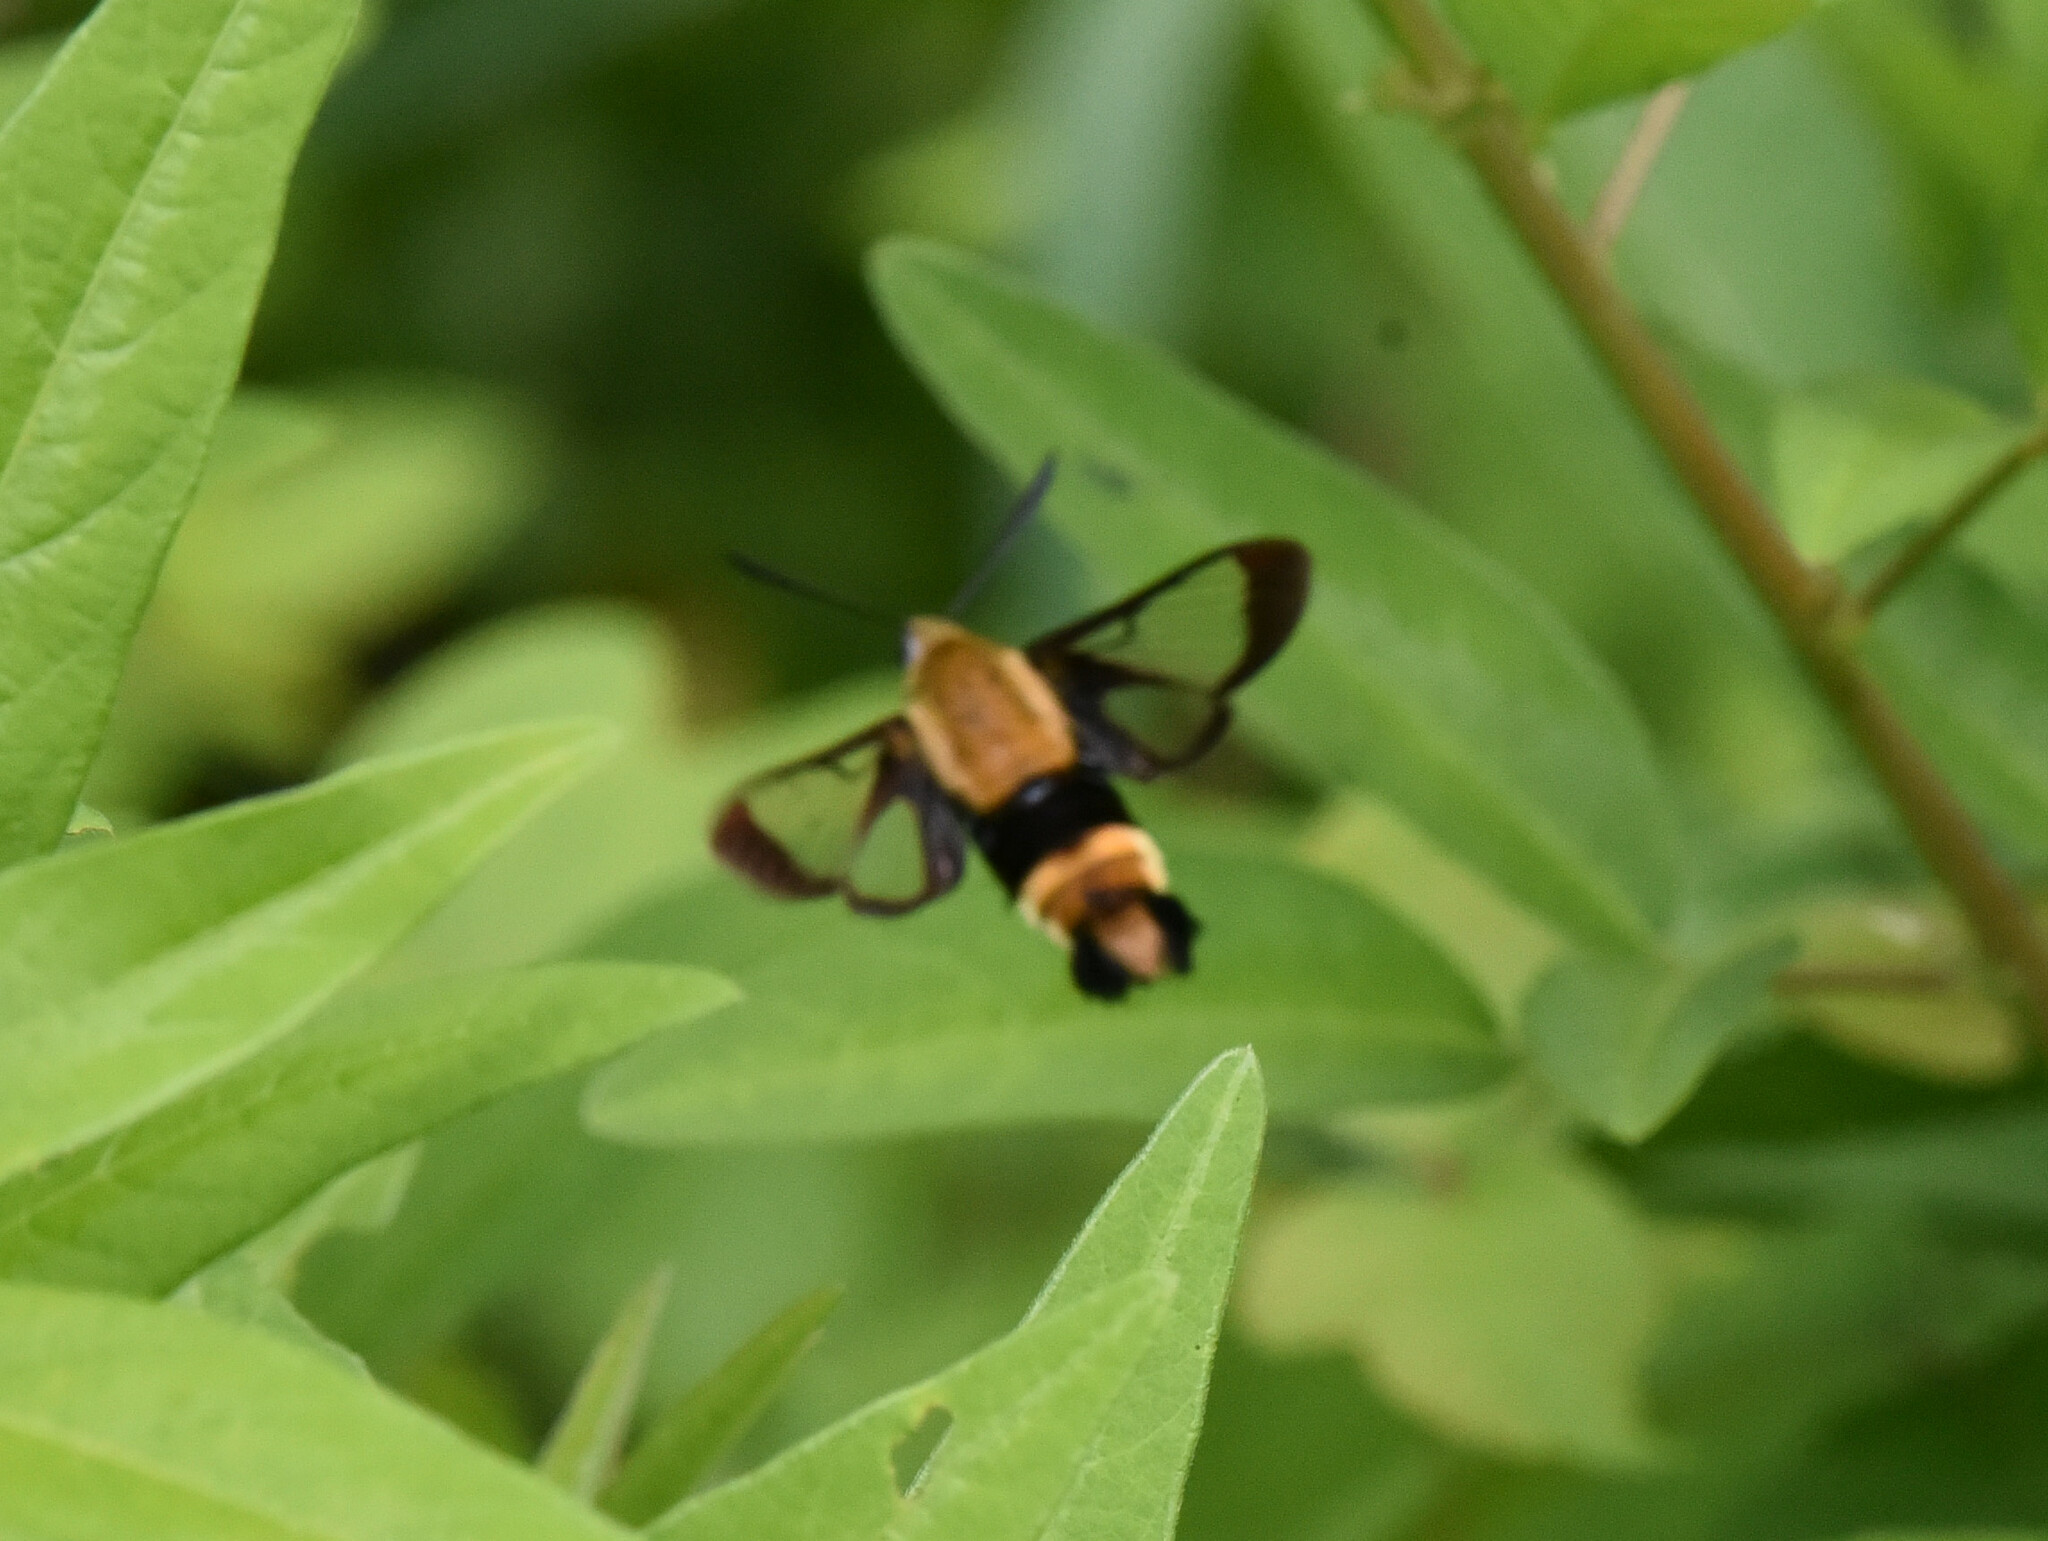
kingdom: Animalia
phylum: Arthropoda
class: Insecta
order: Lepidoptera
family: Sphingidae
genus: Hemaris
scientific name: Hemaris diffinis
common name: Bumblebee moth
